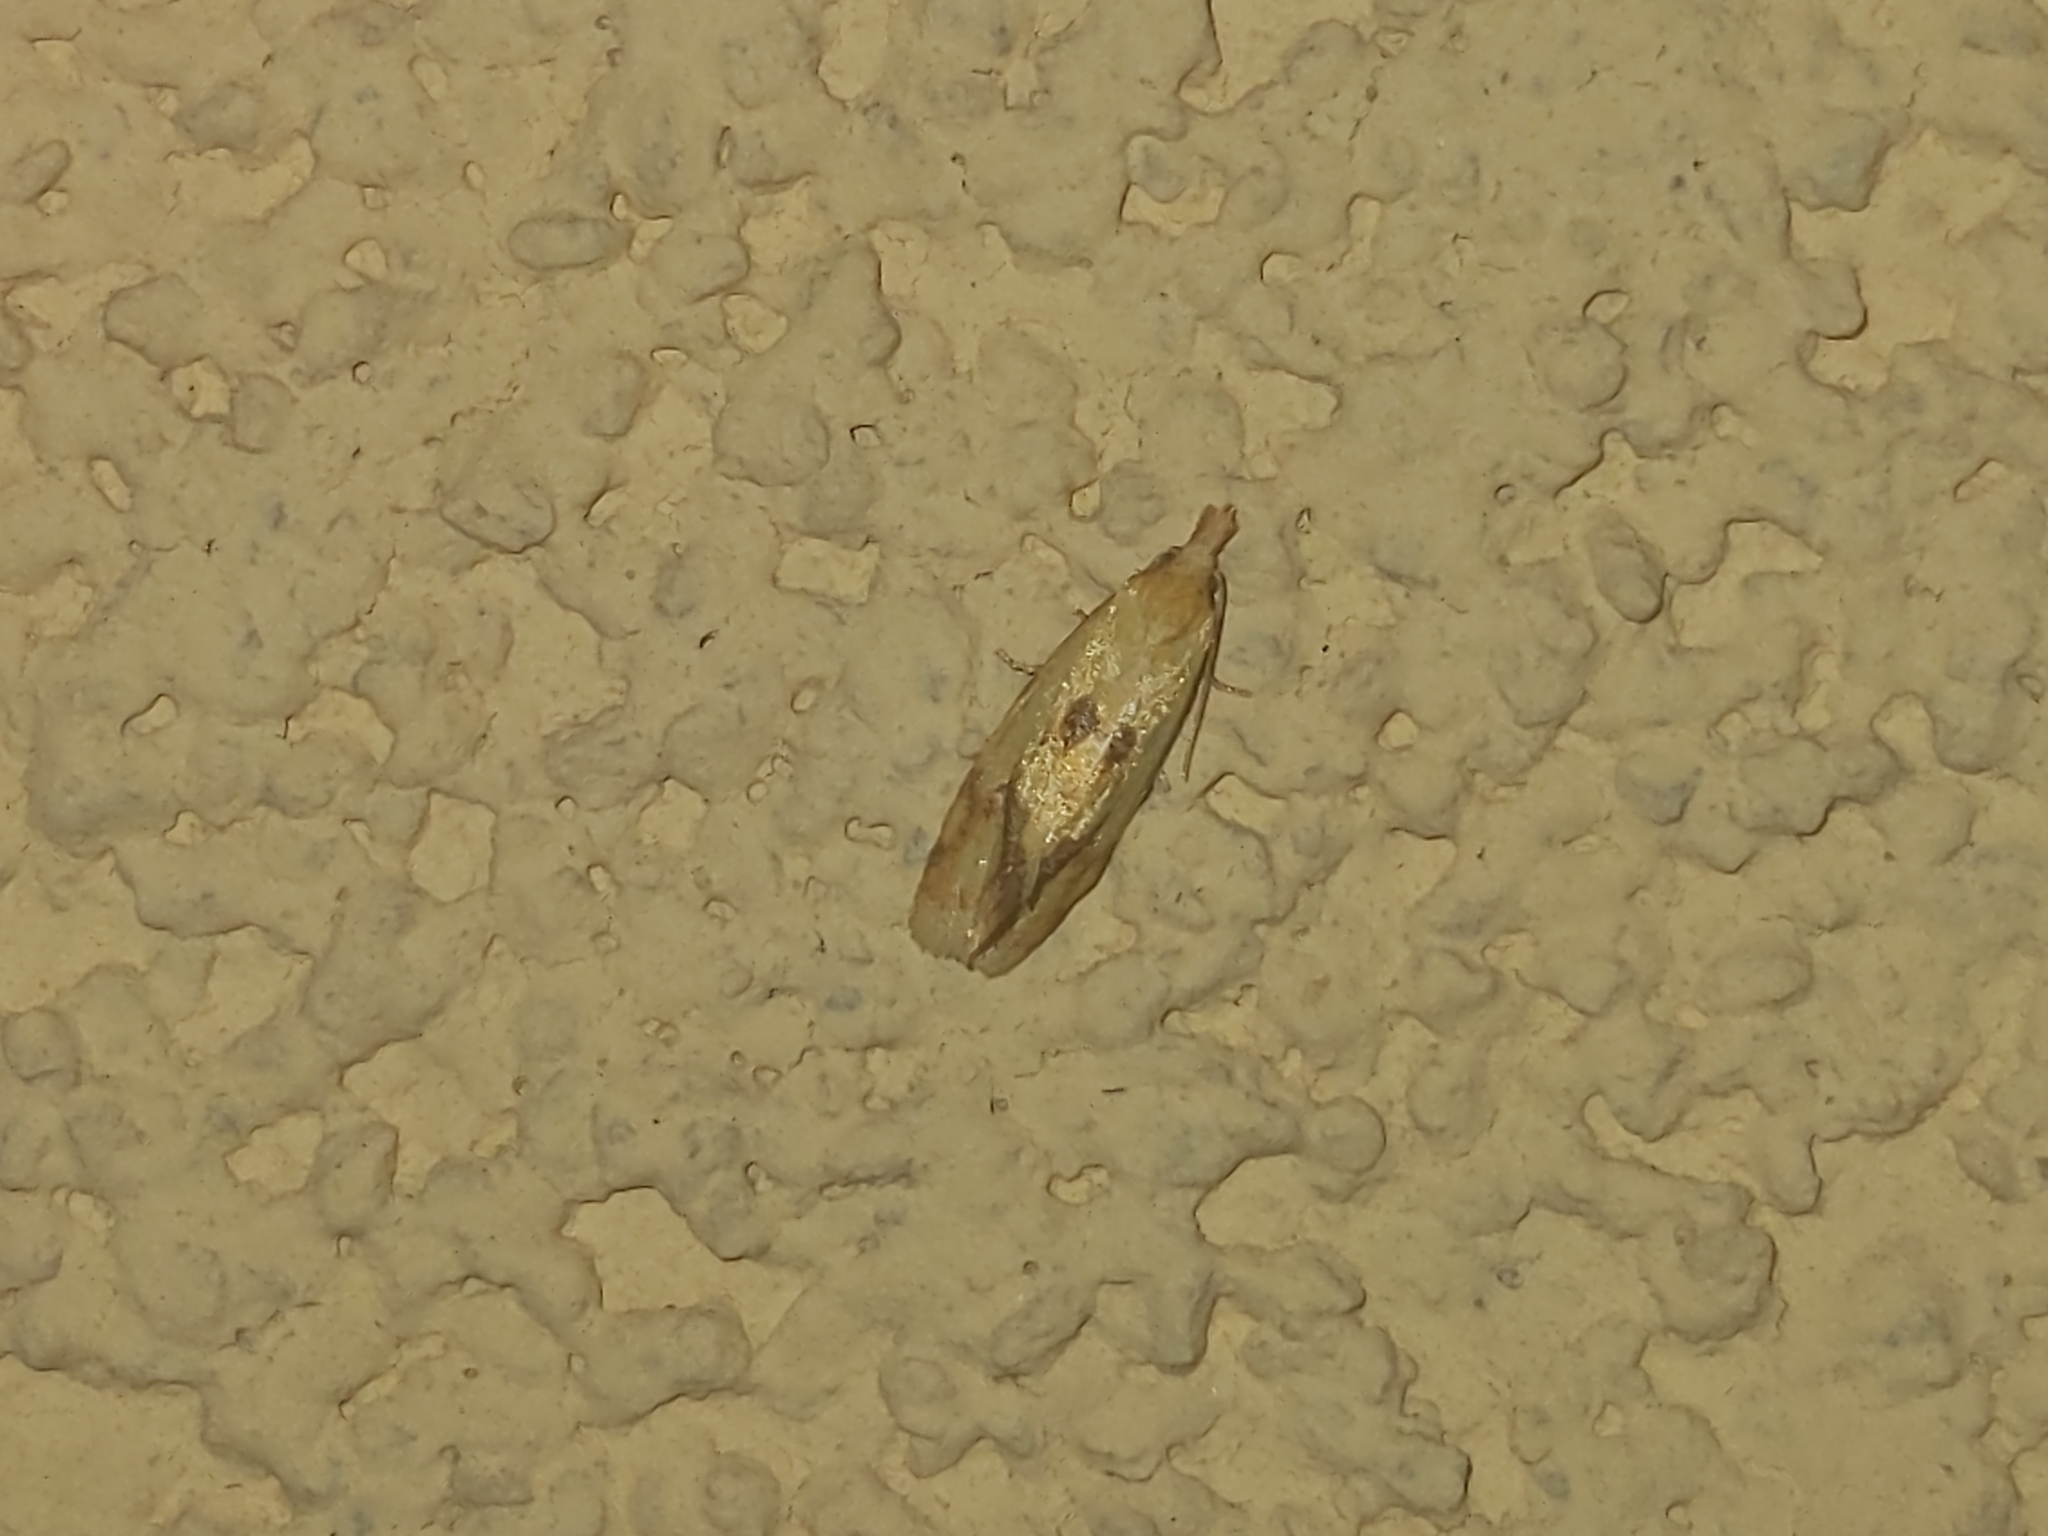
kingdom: Animalia
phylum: Arthropoda
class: Insecta
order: Lepidoptera
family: Tortricidae
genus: Agapeta
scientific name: Agapeta hamana
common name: Common yellow conch
